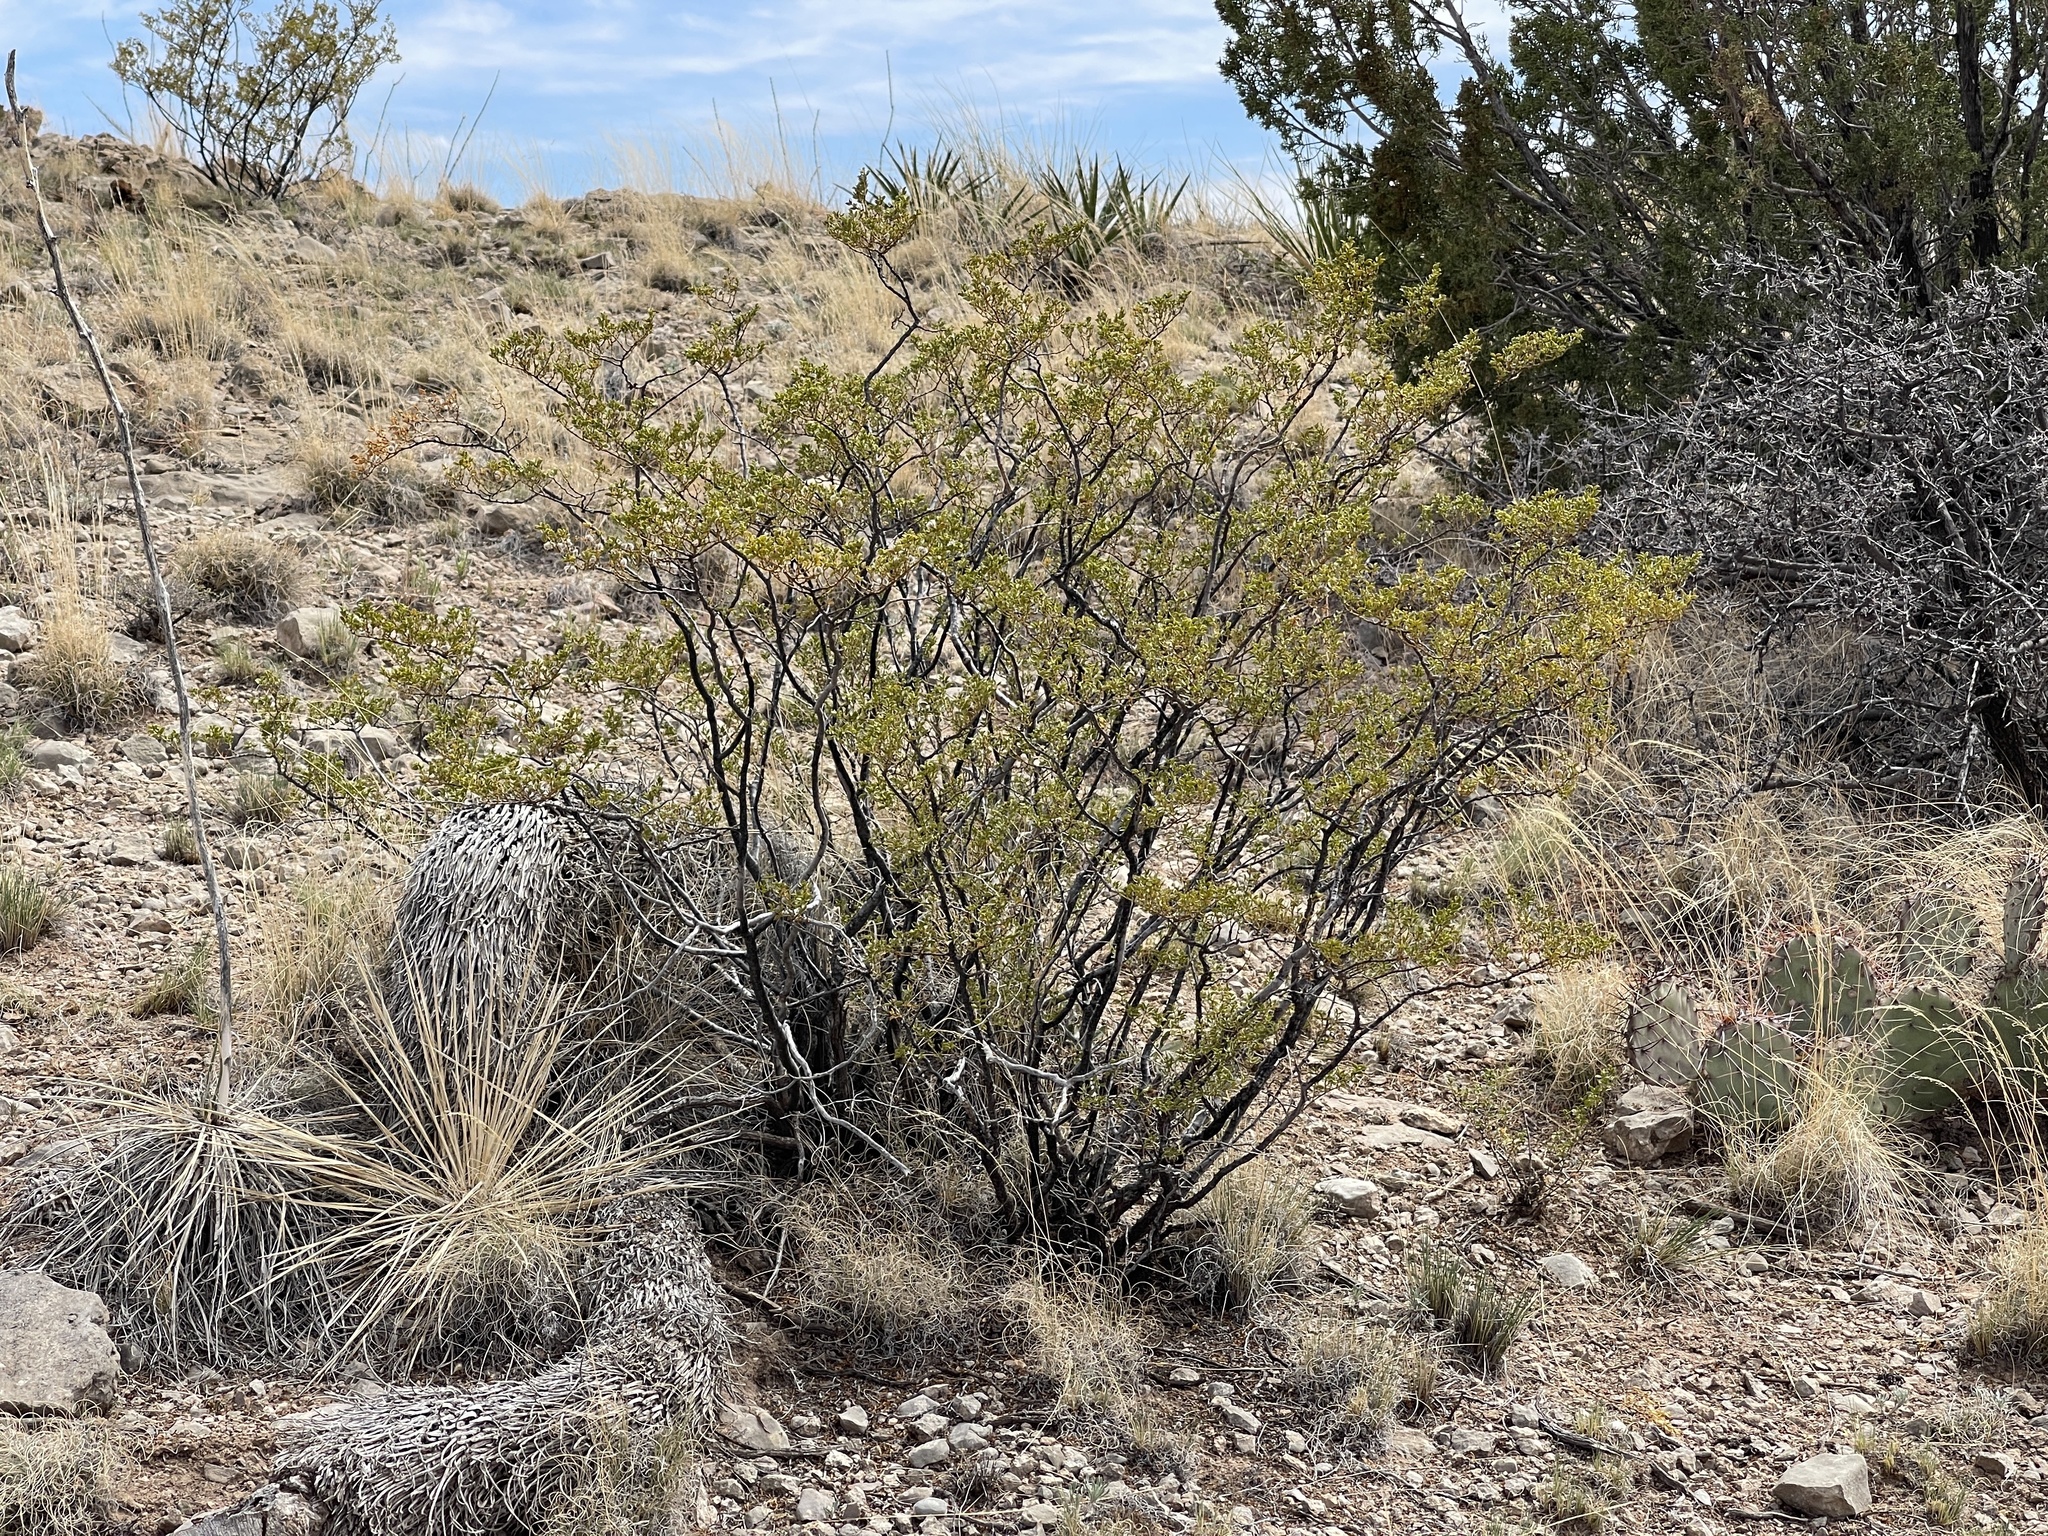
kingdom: Plantae
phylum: Tracheophyta
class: Magnoliopsida
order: Zygophyllales
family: Zygophyllaceae
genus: Larrea
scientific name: Larrea tridentata
